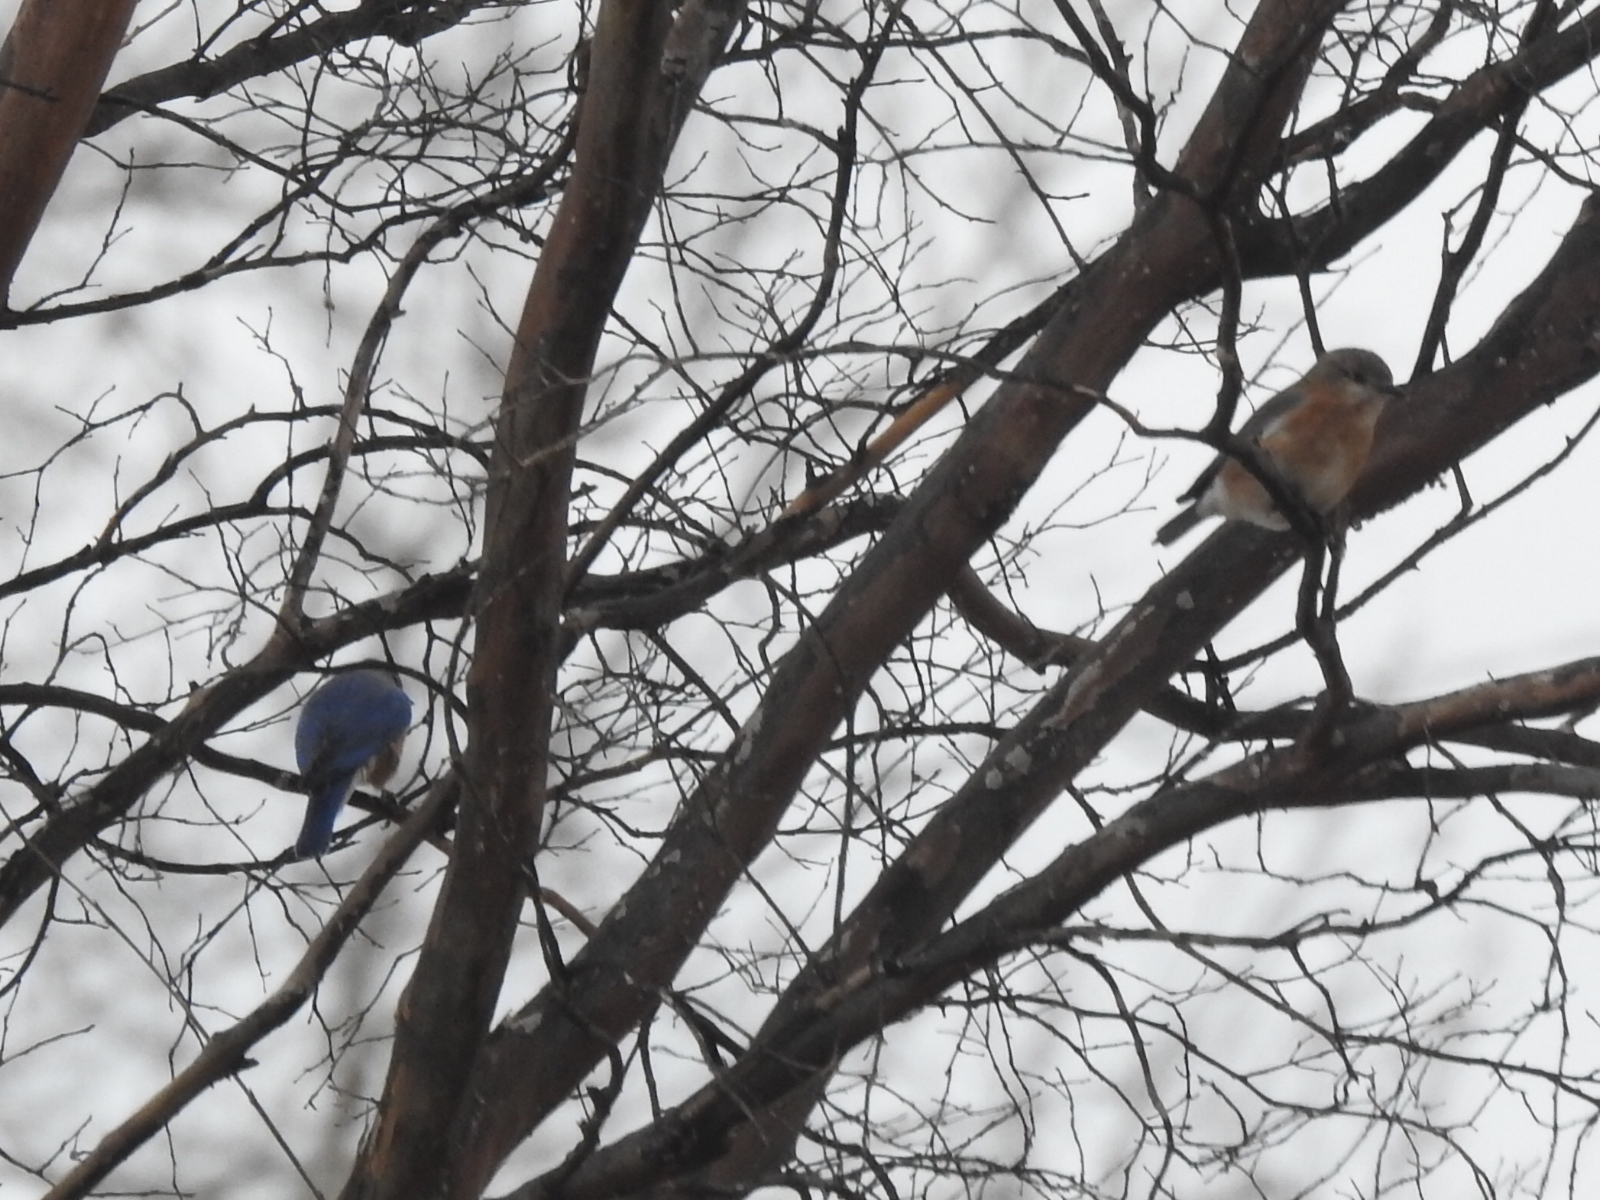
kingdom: Animalia
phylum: Chordata
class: Aves
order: Passeriformes
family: Turdidae
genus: Sialia
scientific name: Sialia sialis
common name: Eastern bluebird
